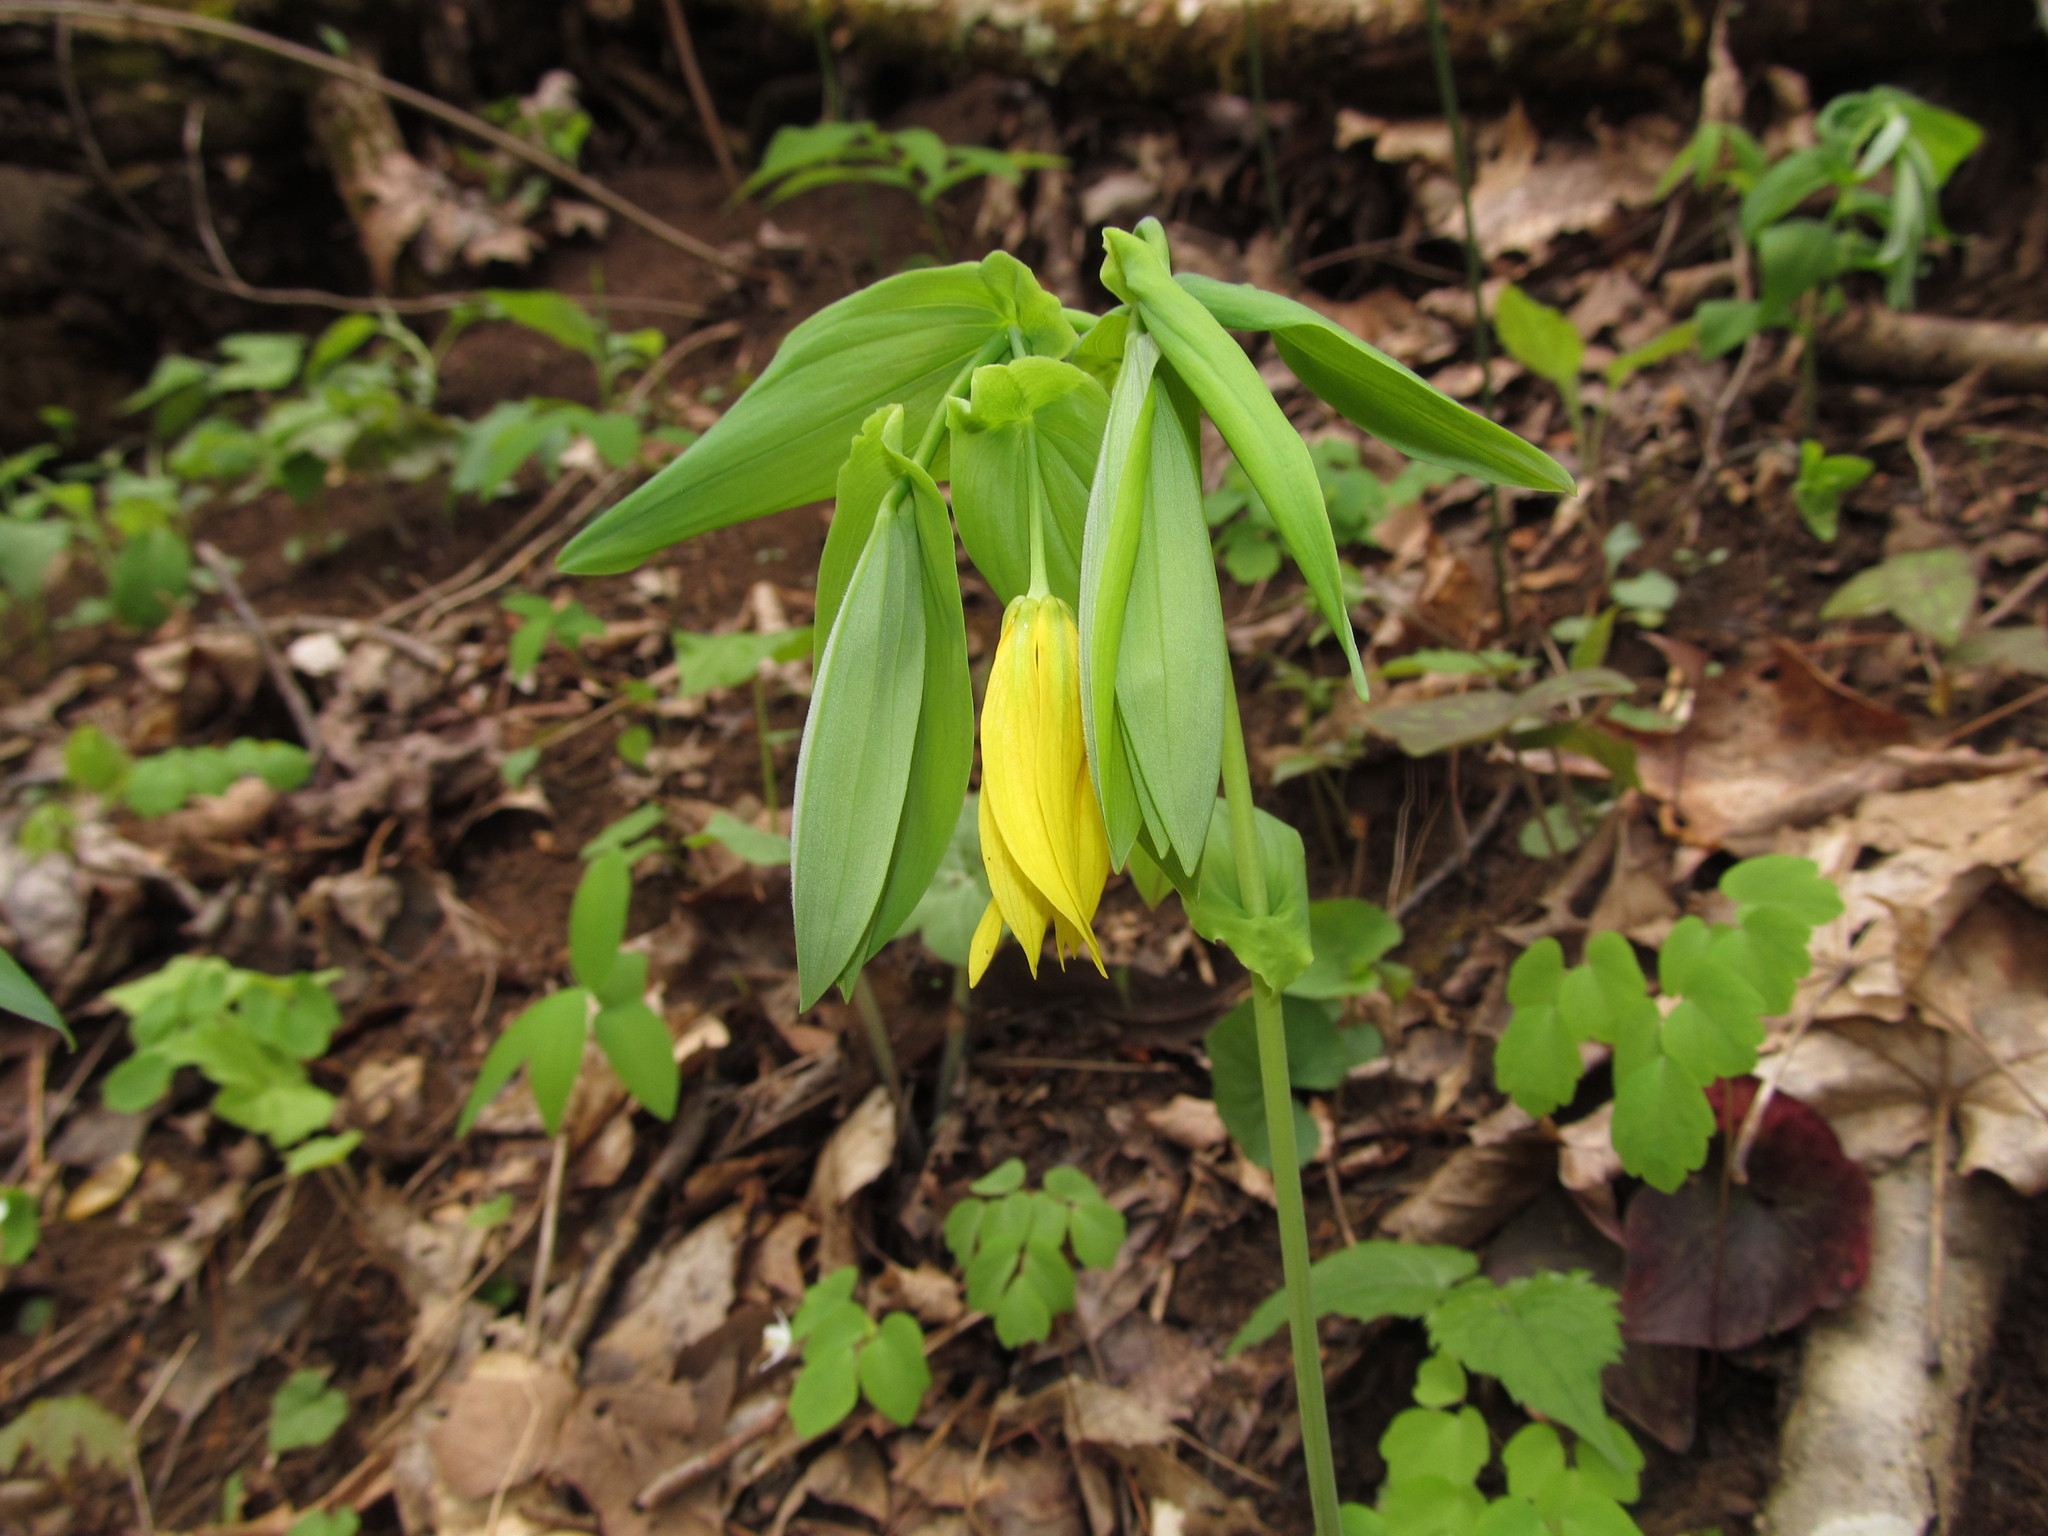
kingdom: Plantae
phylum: Tracheophyta
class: Liliopsida
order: Liliales
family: Colchicaceae
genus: Uvularia
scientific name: Uvularia grandiflora
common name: Bellwort
